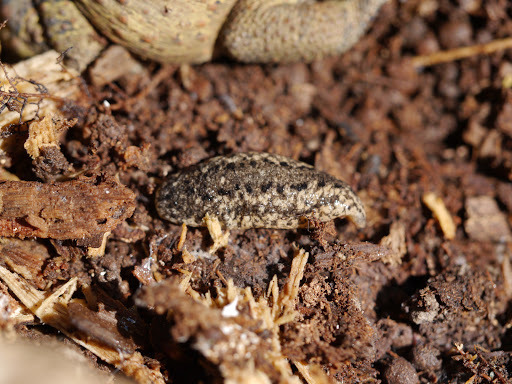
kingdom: Animalia
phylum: Mollusca
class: Gastropoda
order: Stylommatophora
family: Philomycidae
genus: Philomycus
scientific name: Philomycus carolinianus
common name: Carolina mantleslug
